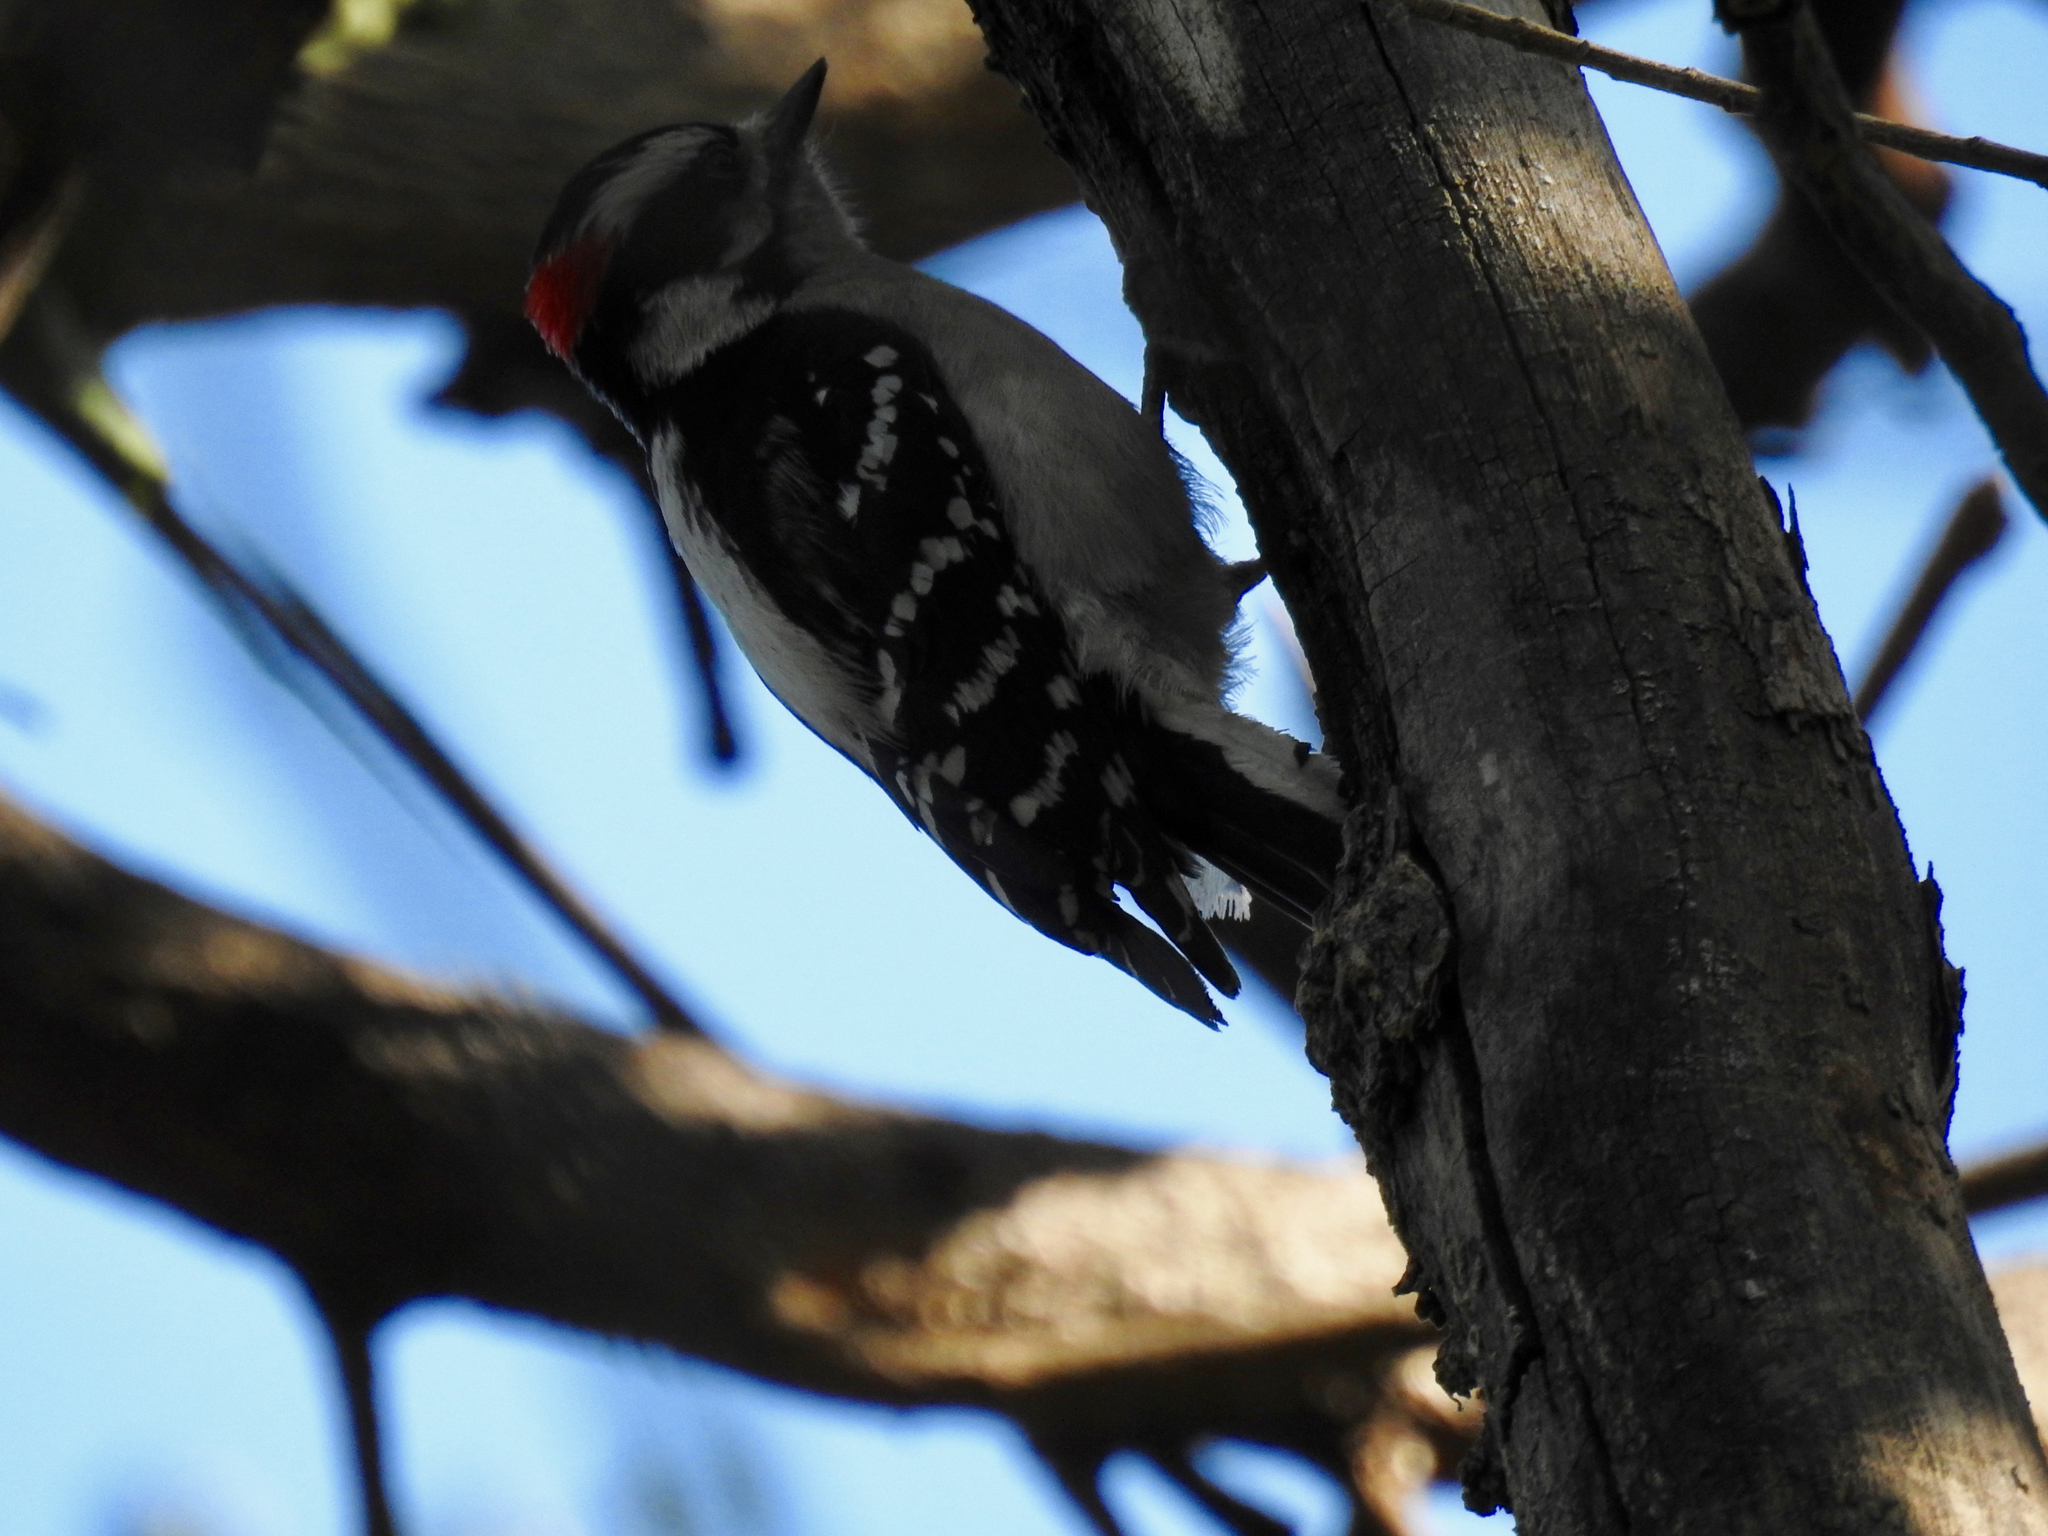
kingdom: Animalia
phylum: Chordata
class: Aves
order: Piciformes
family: Picidae
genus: Dryobates
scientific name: Dryobates pubescens
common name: Downy woodpecker
